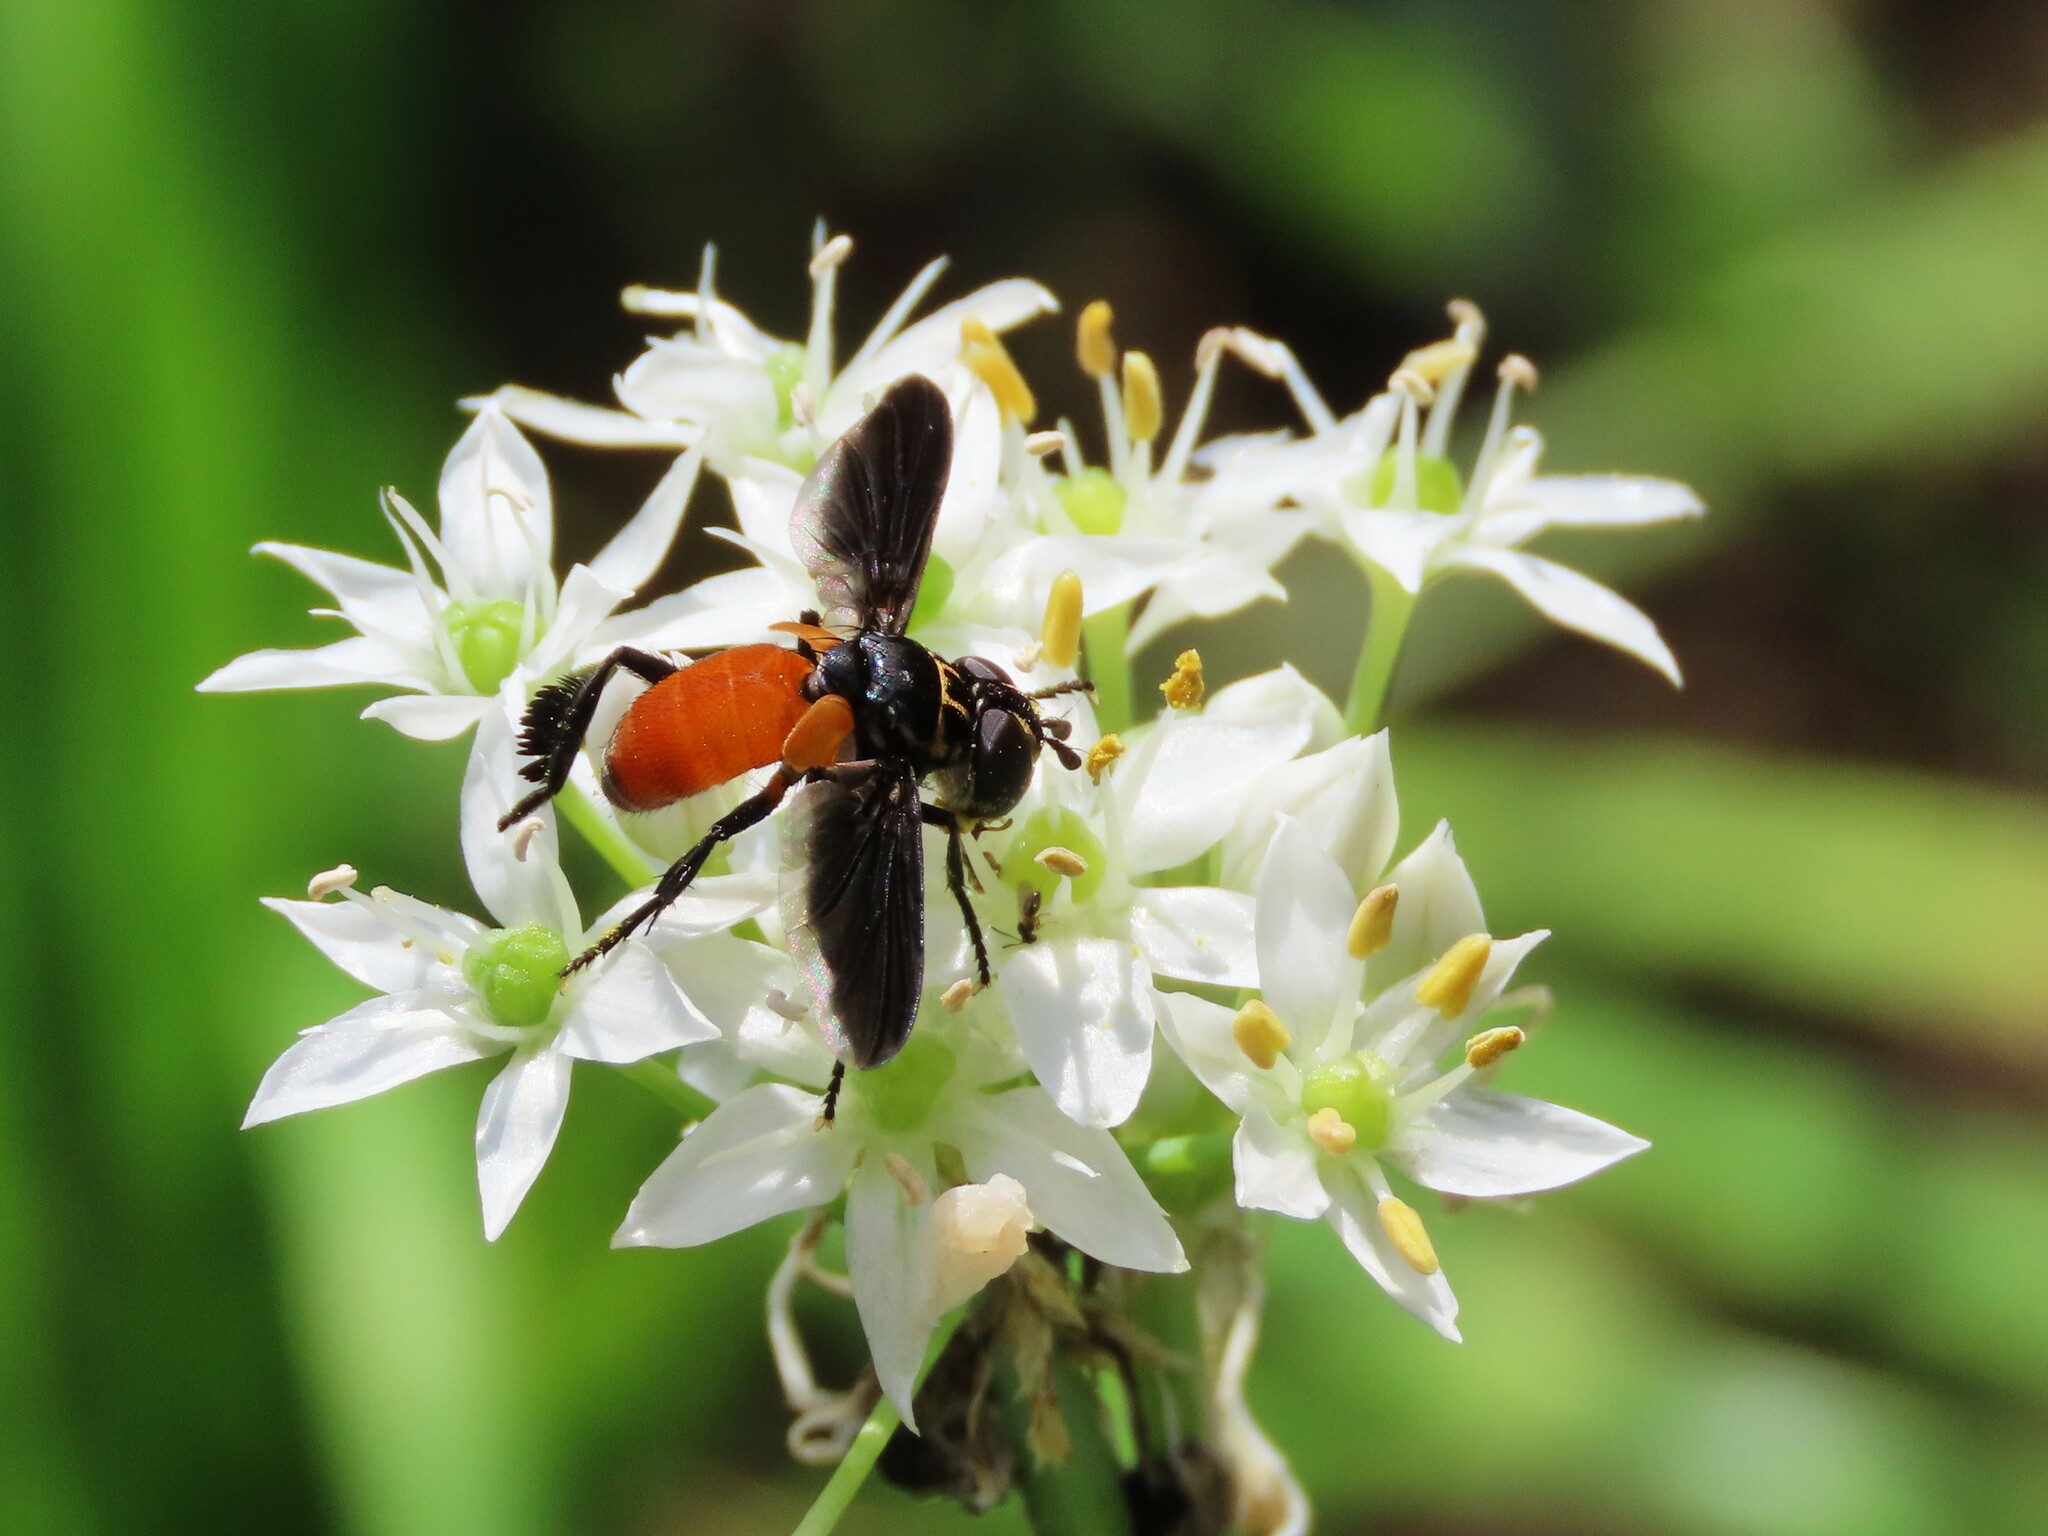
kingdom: Animalia
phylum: Arthropoda
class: Insecta
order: Diptera
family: Tachinidae
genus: Trichopoda
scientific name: Trichopoda pennipes
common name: Tachinid fly
